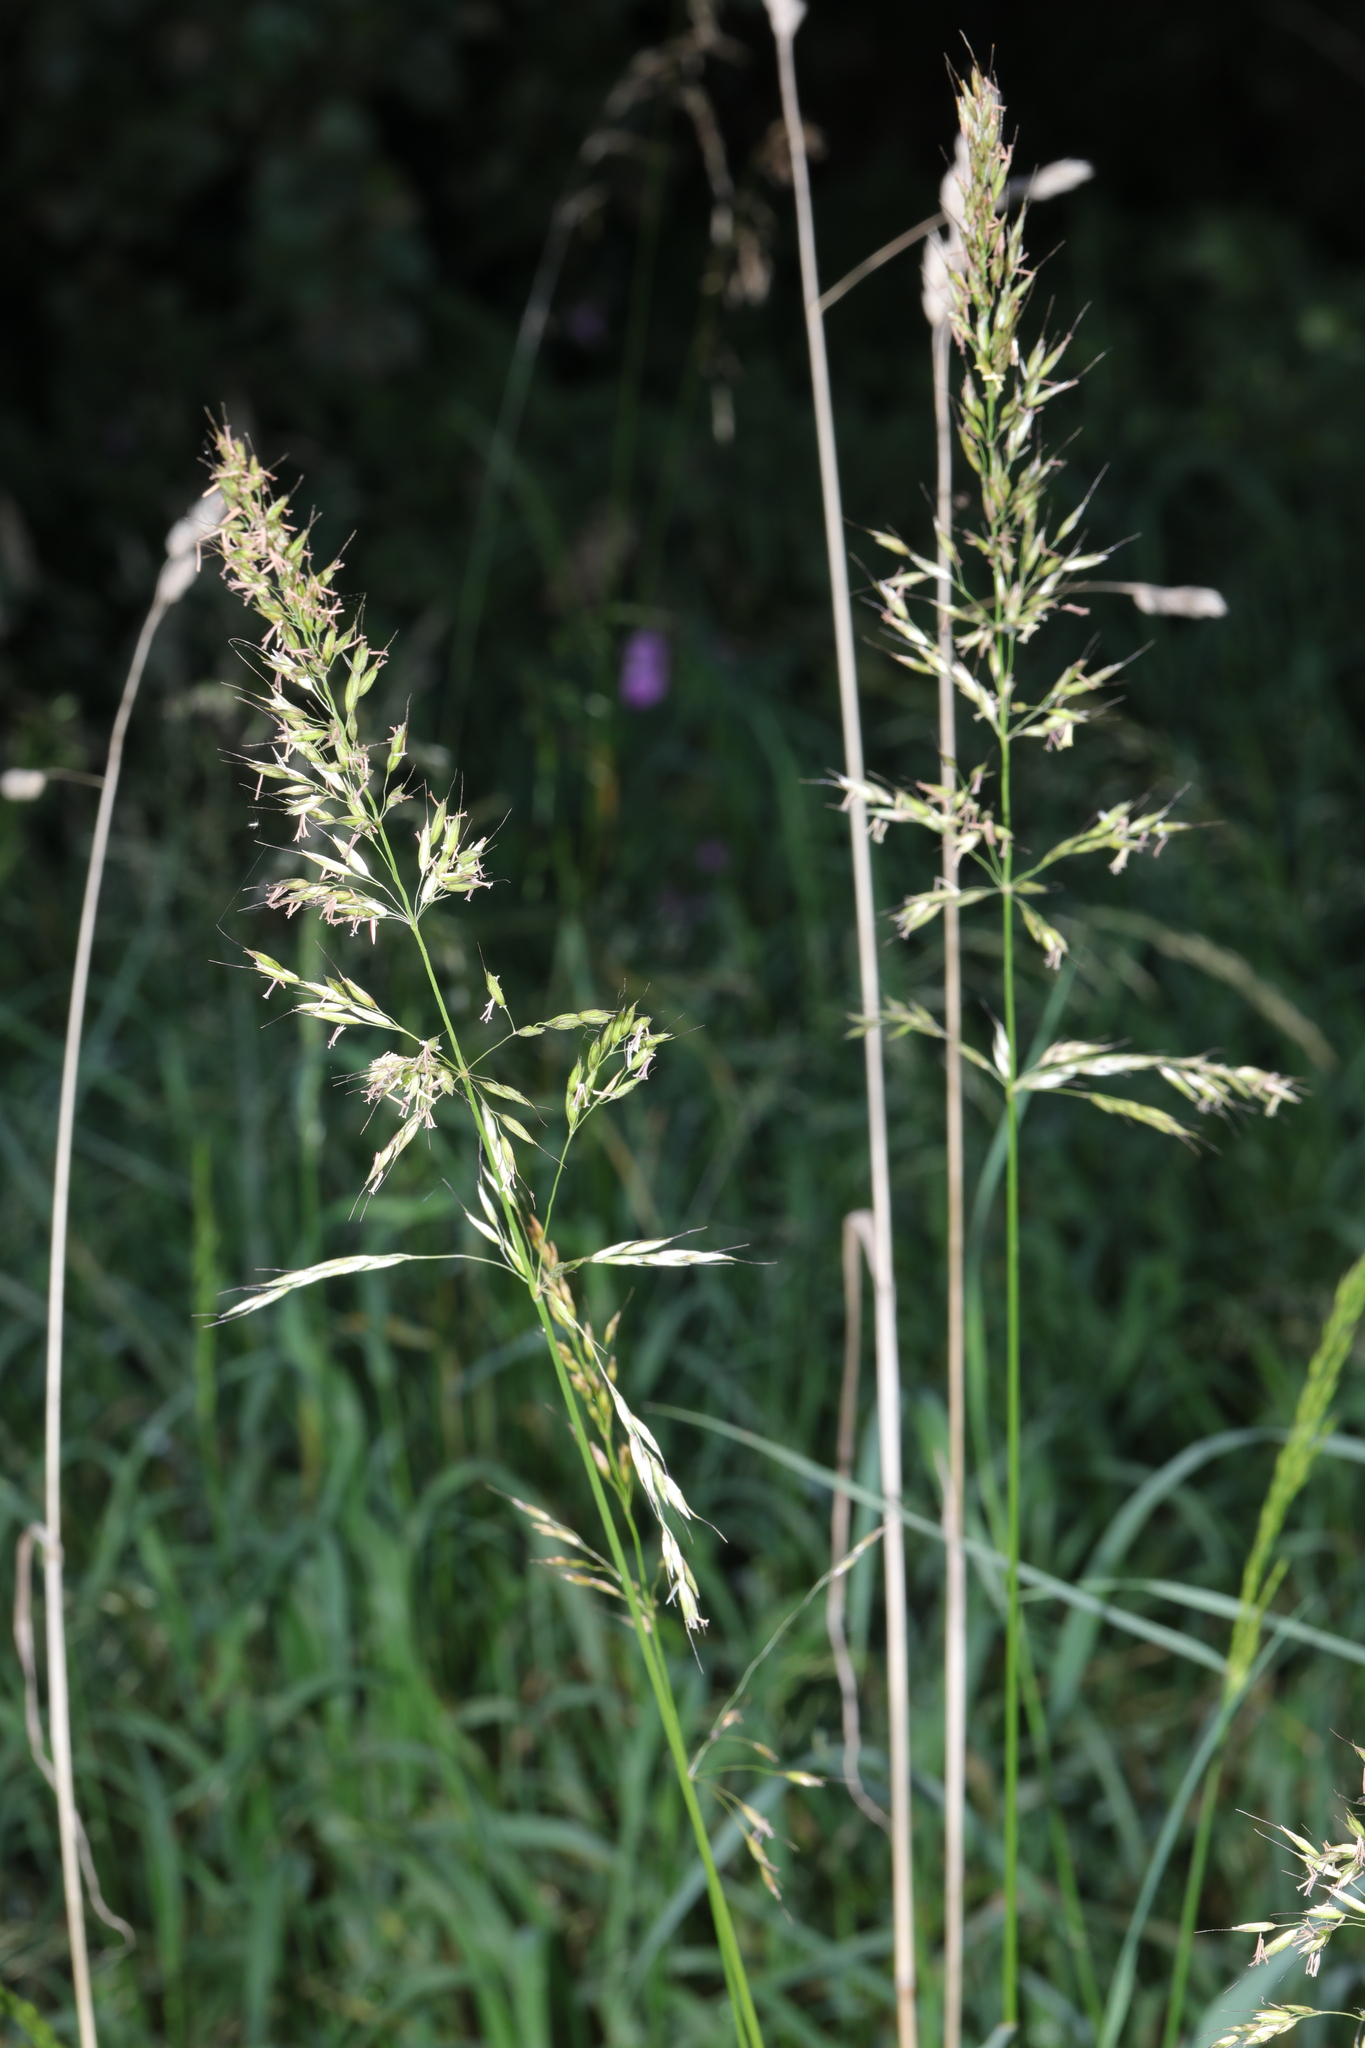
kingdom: Plantae
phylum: Tracheophyta
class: Liliopsida
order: Poales
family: Poaceae
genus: Arrhenatherum
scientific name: Arrhenatherum elatius
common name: Tall oatgrass
